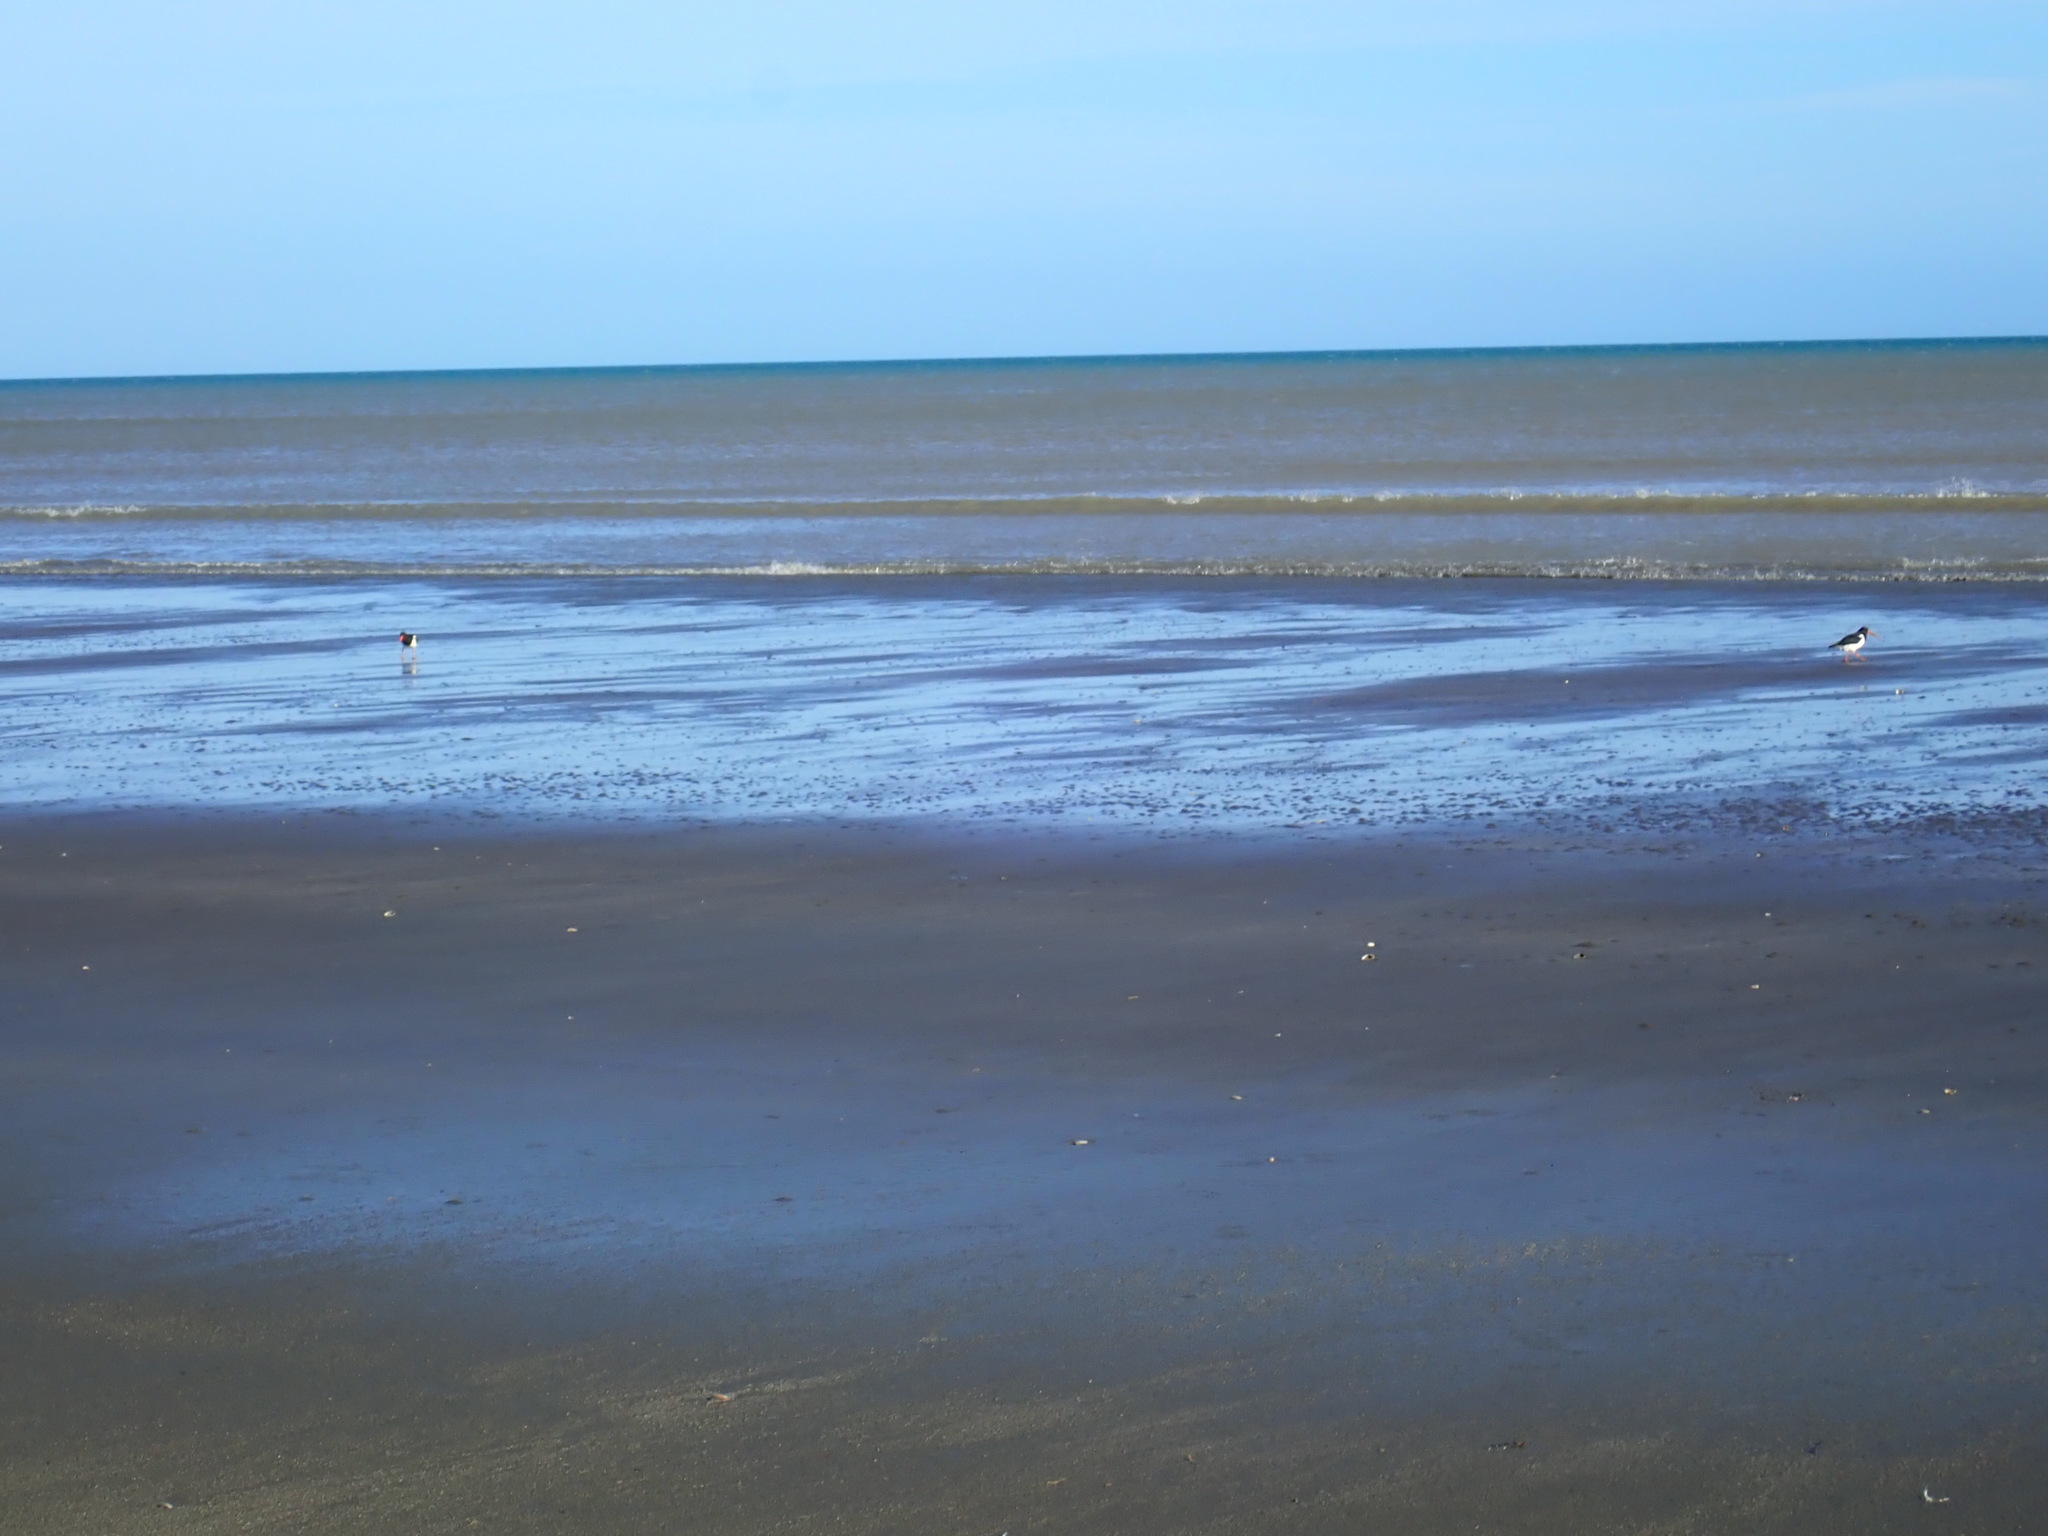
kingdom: Animalia
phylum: Chordata
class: Aves
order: Charadriiformes
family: Haematopodidae
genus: Haematopus
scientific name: Haematopus finschi
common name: South island oystercatcher
